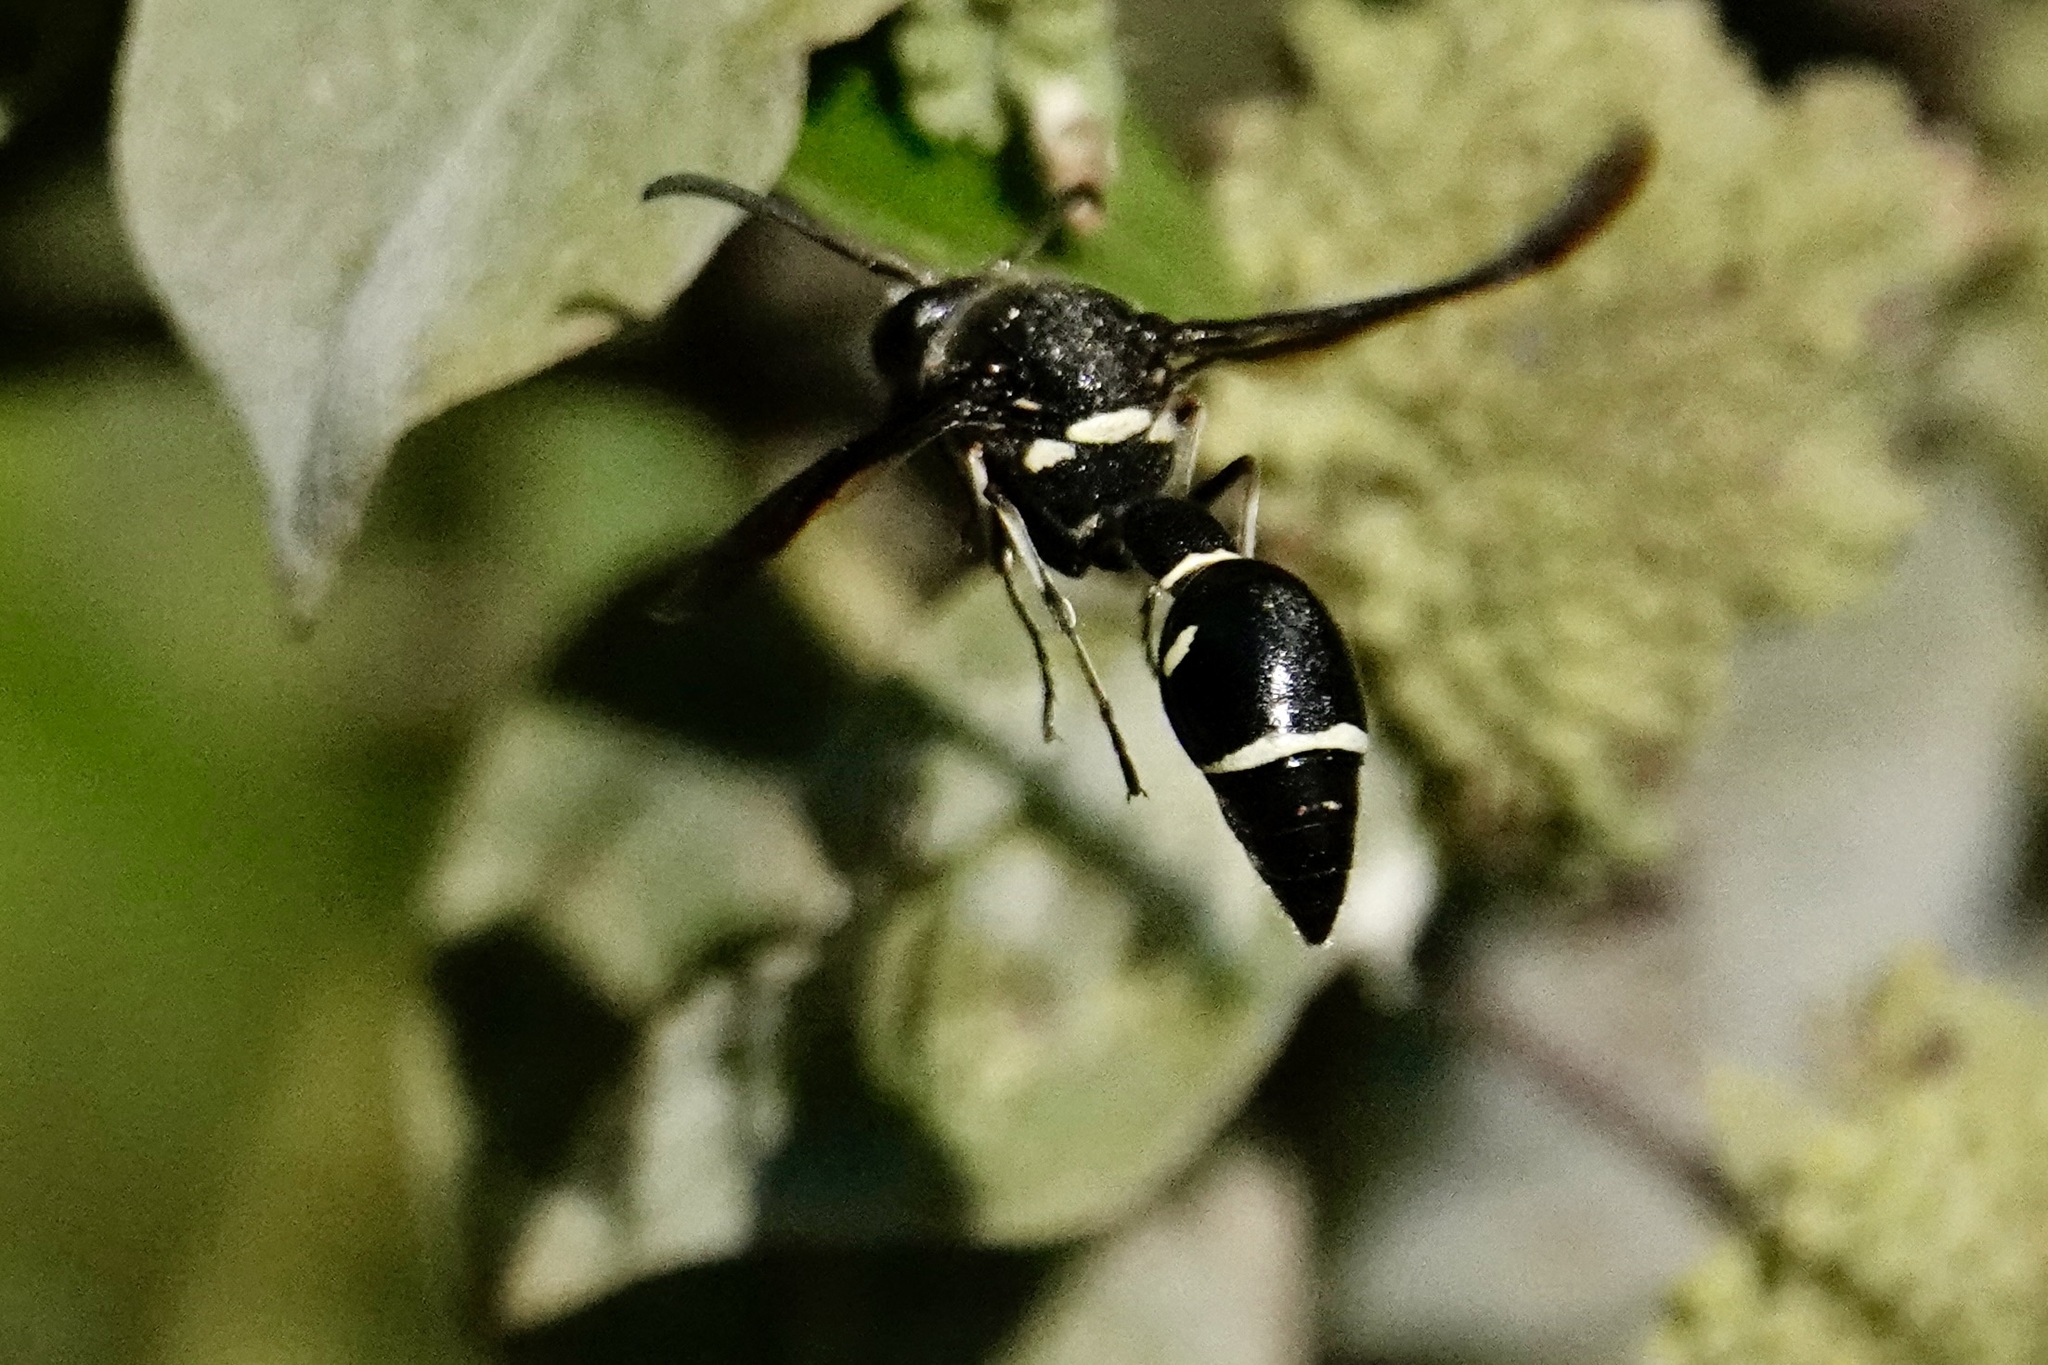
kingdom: Animalia
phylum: Arthropoda
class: Insecta
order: Hymenoptera
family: Vespidae
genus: Eumenes
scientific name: Eumenes fraternus
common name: Fraternal potter wasp
